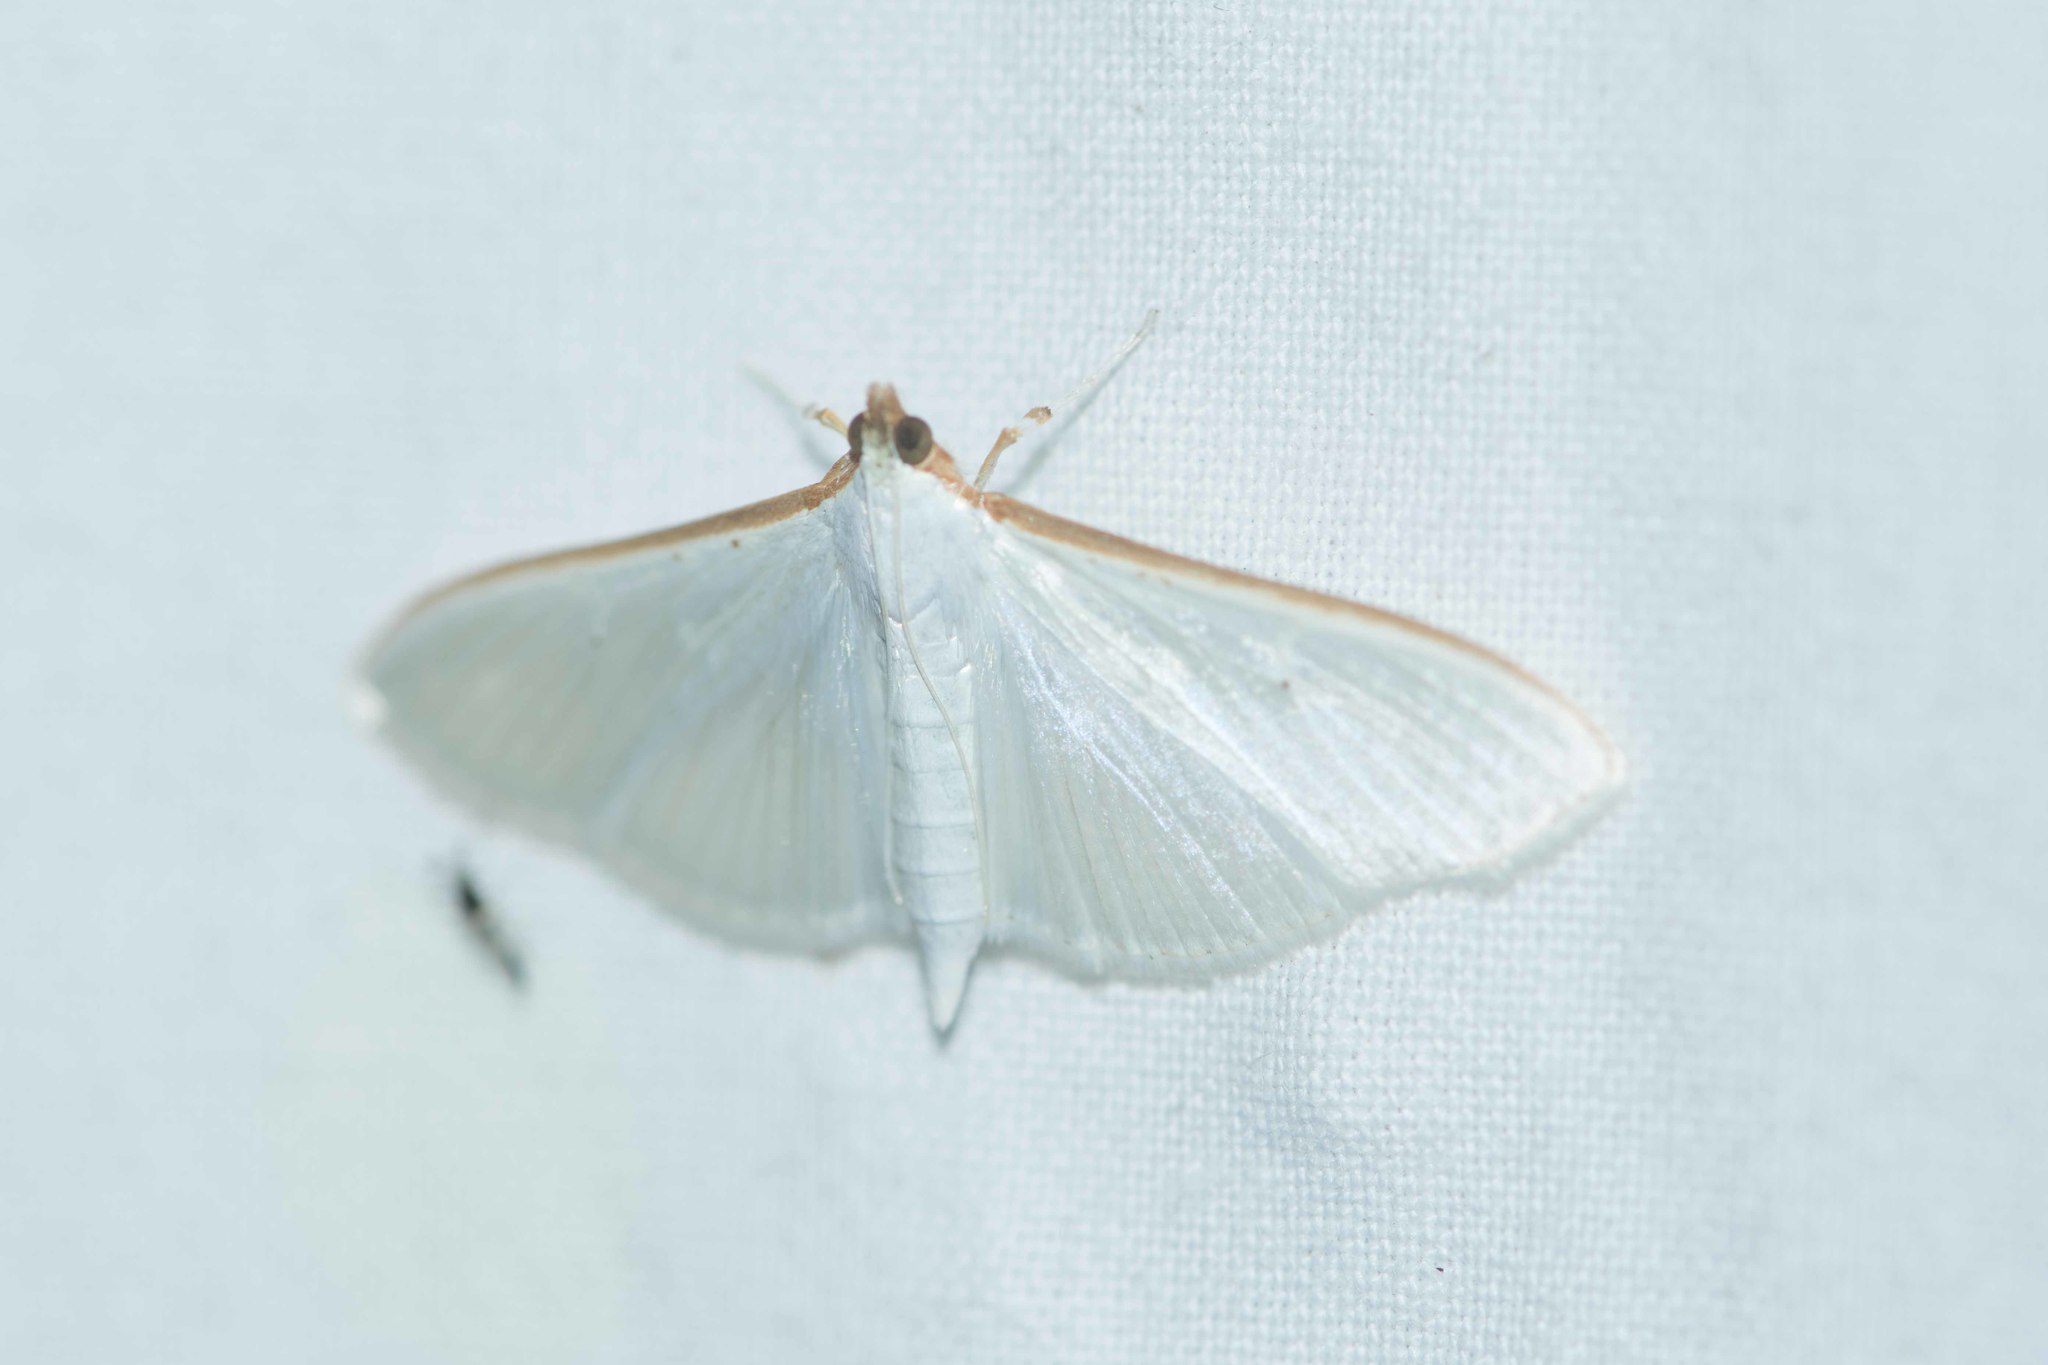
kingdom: Animalia
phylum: Arthropoda
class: Insecta
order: Lepidoptera
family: Crambidae
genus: Palpita
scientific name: Palpita vitrealis
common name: Olive-tree pearl
